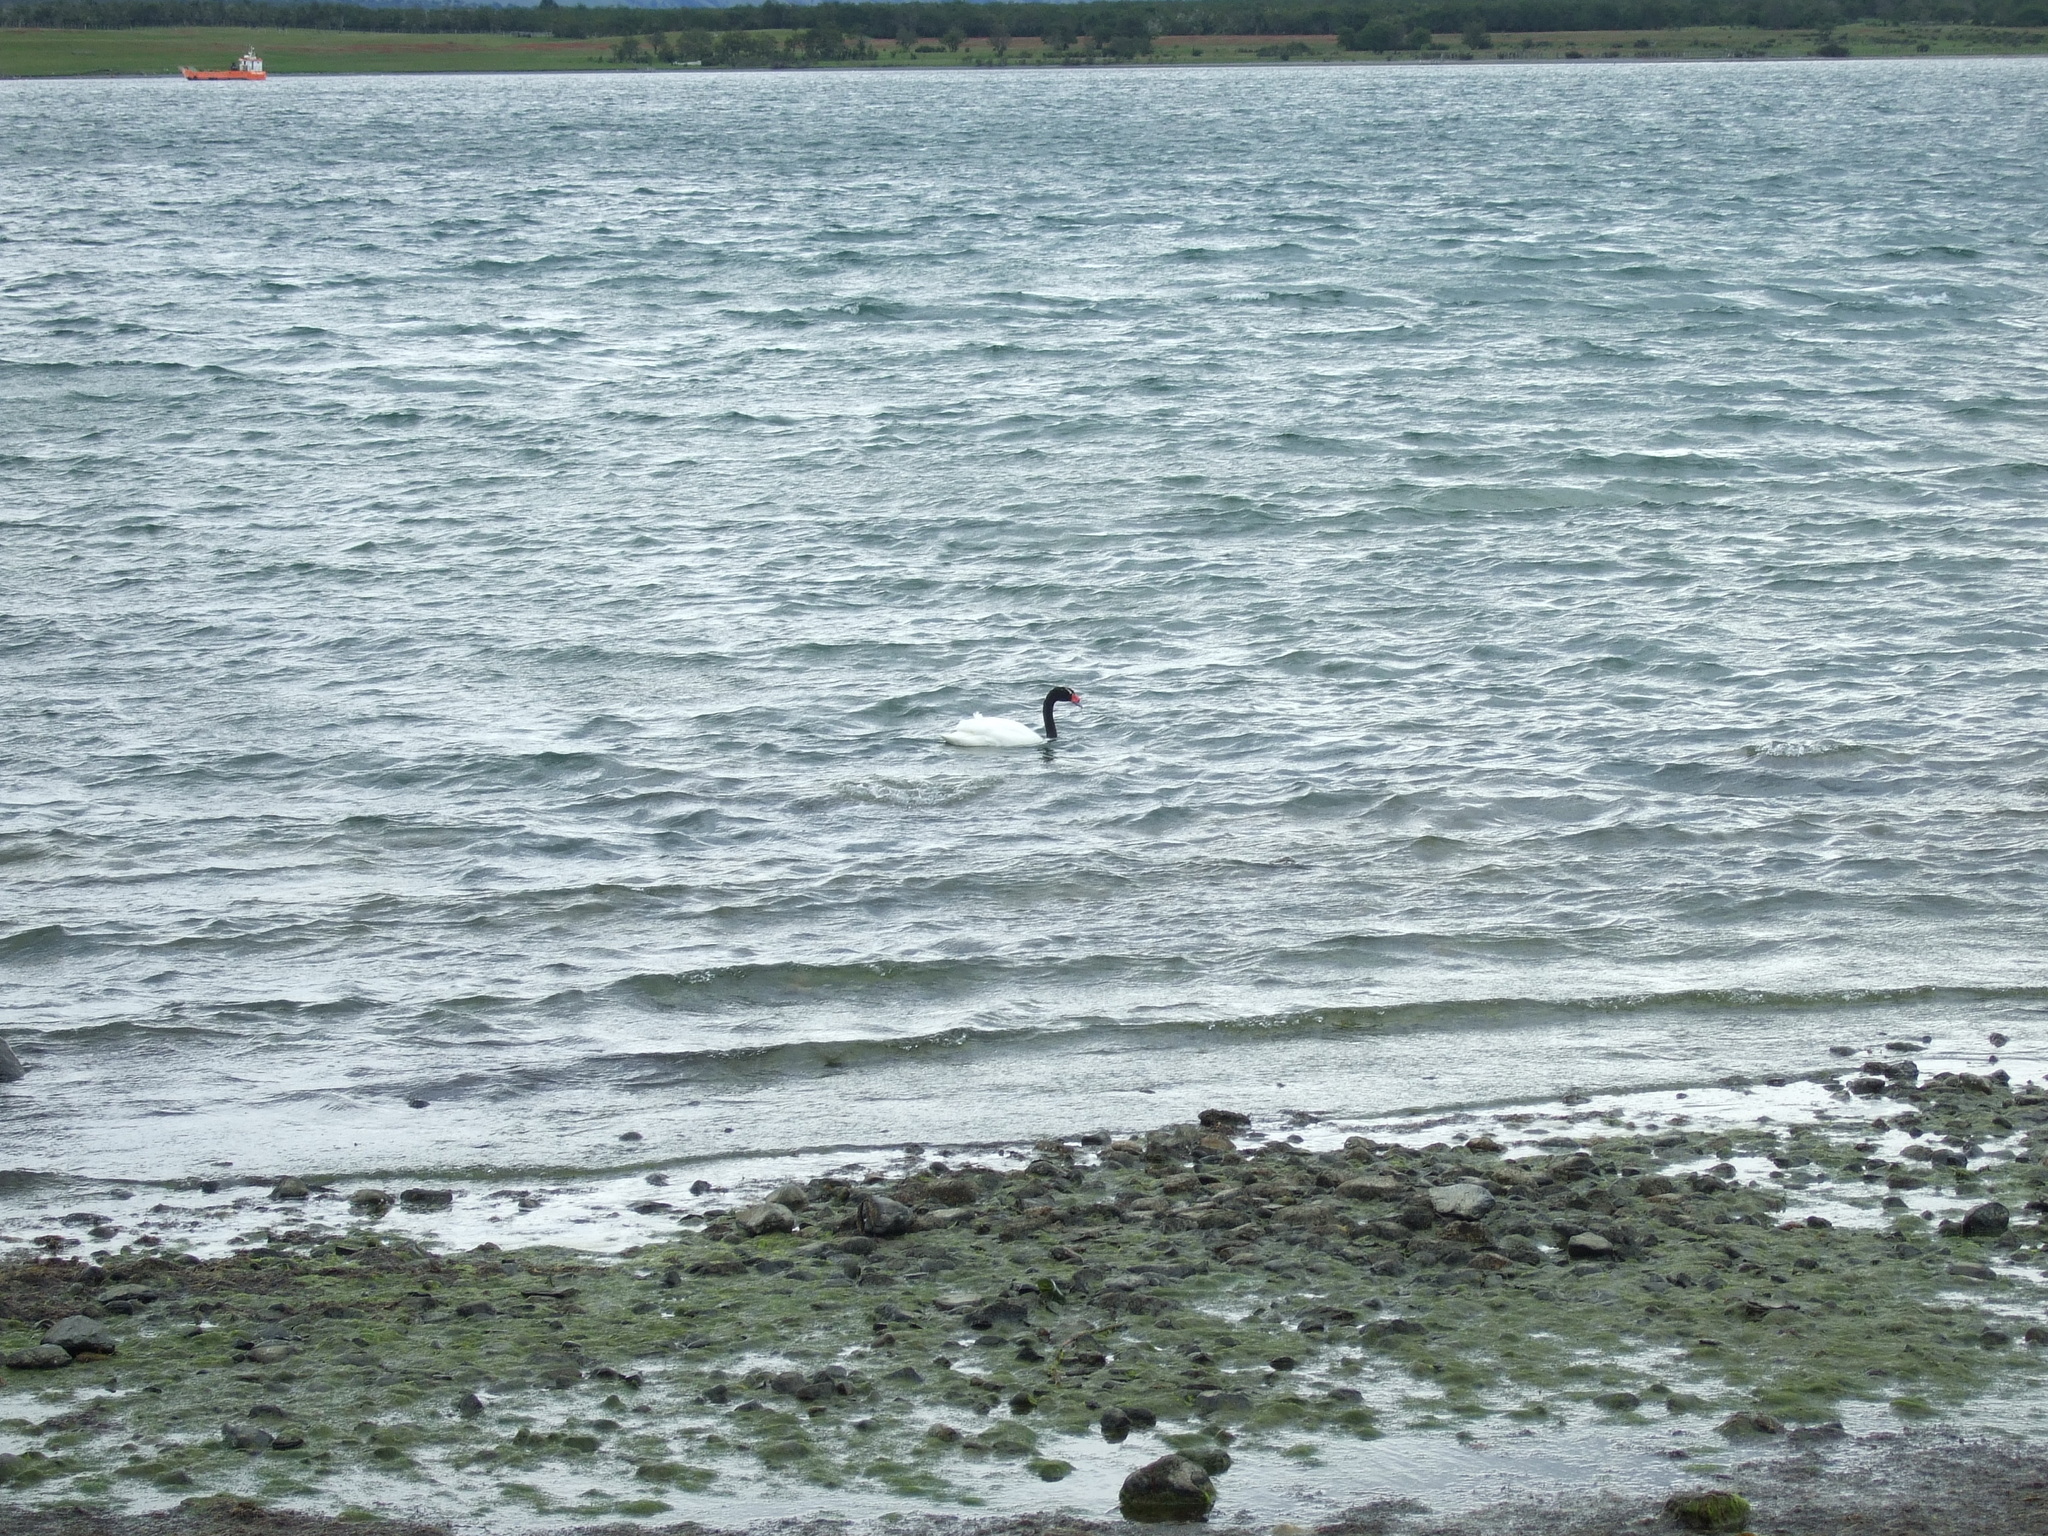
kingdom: Animalia
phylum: Chordata
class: Aves
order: Anseriformes
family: Anatidae
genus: Cygnus
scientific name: Cygnus melancoryphus
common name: Black-necked swan
